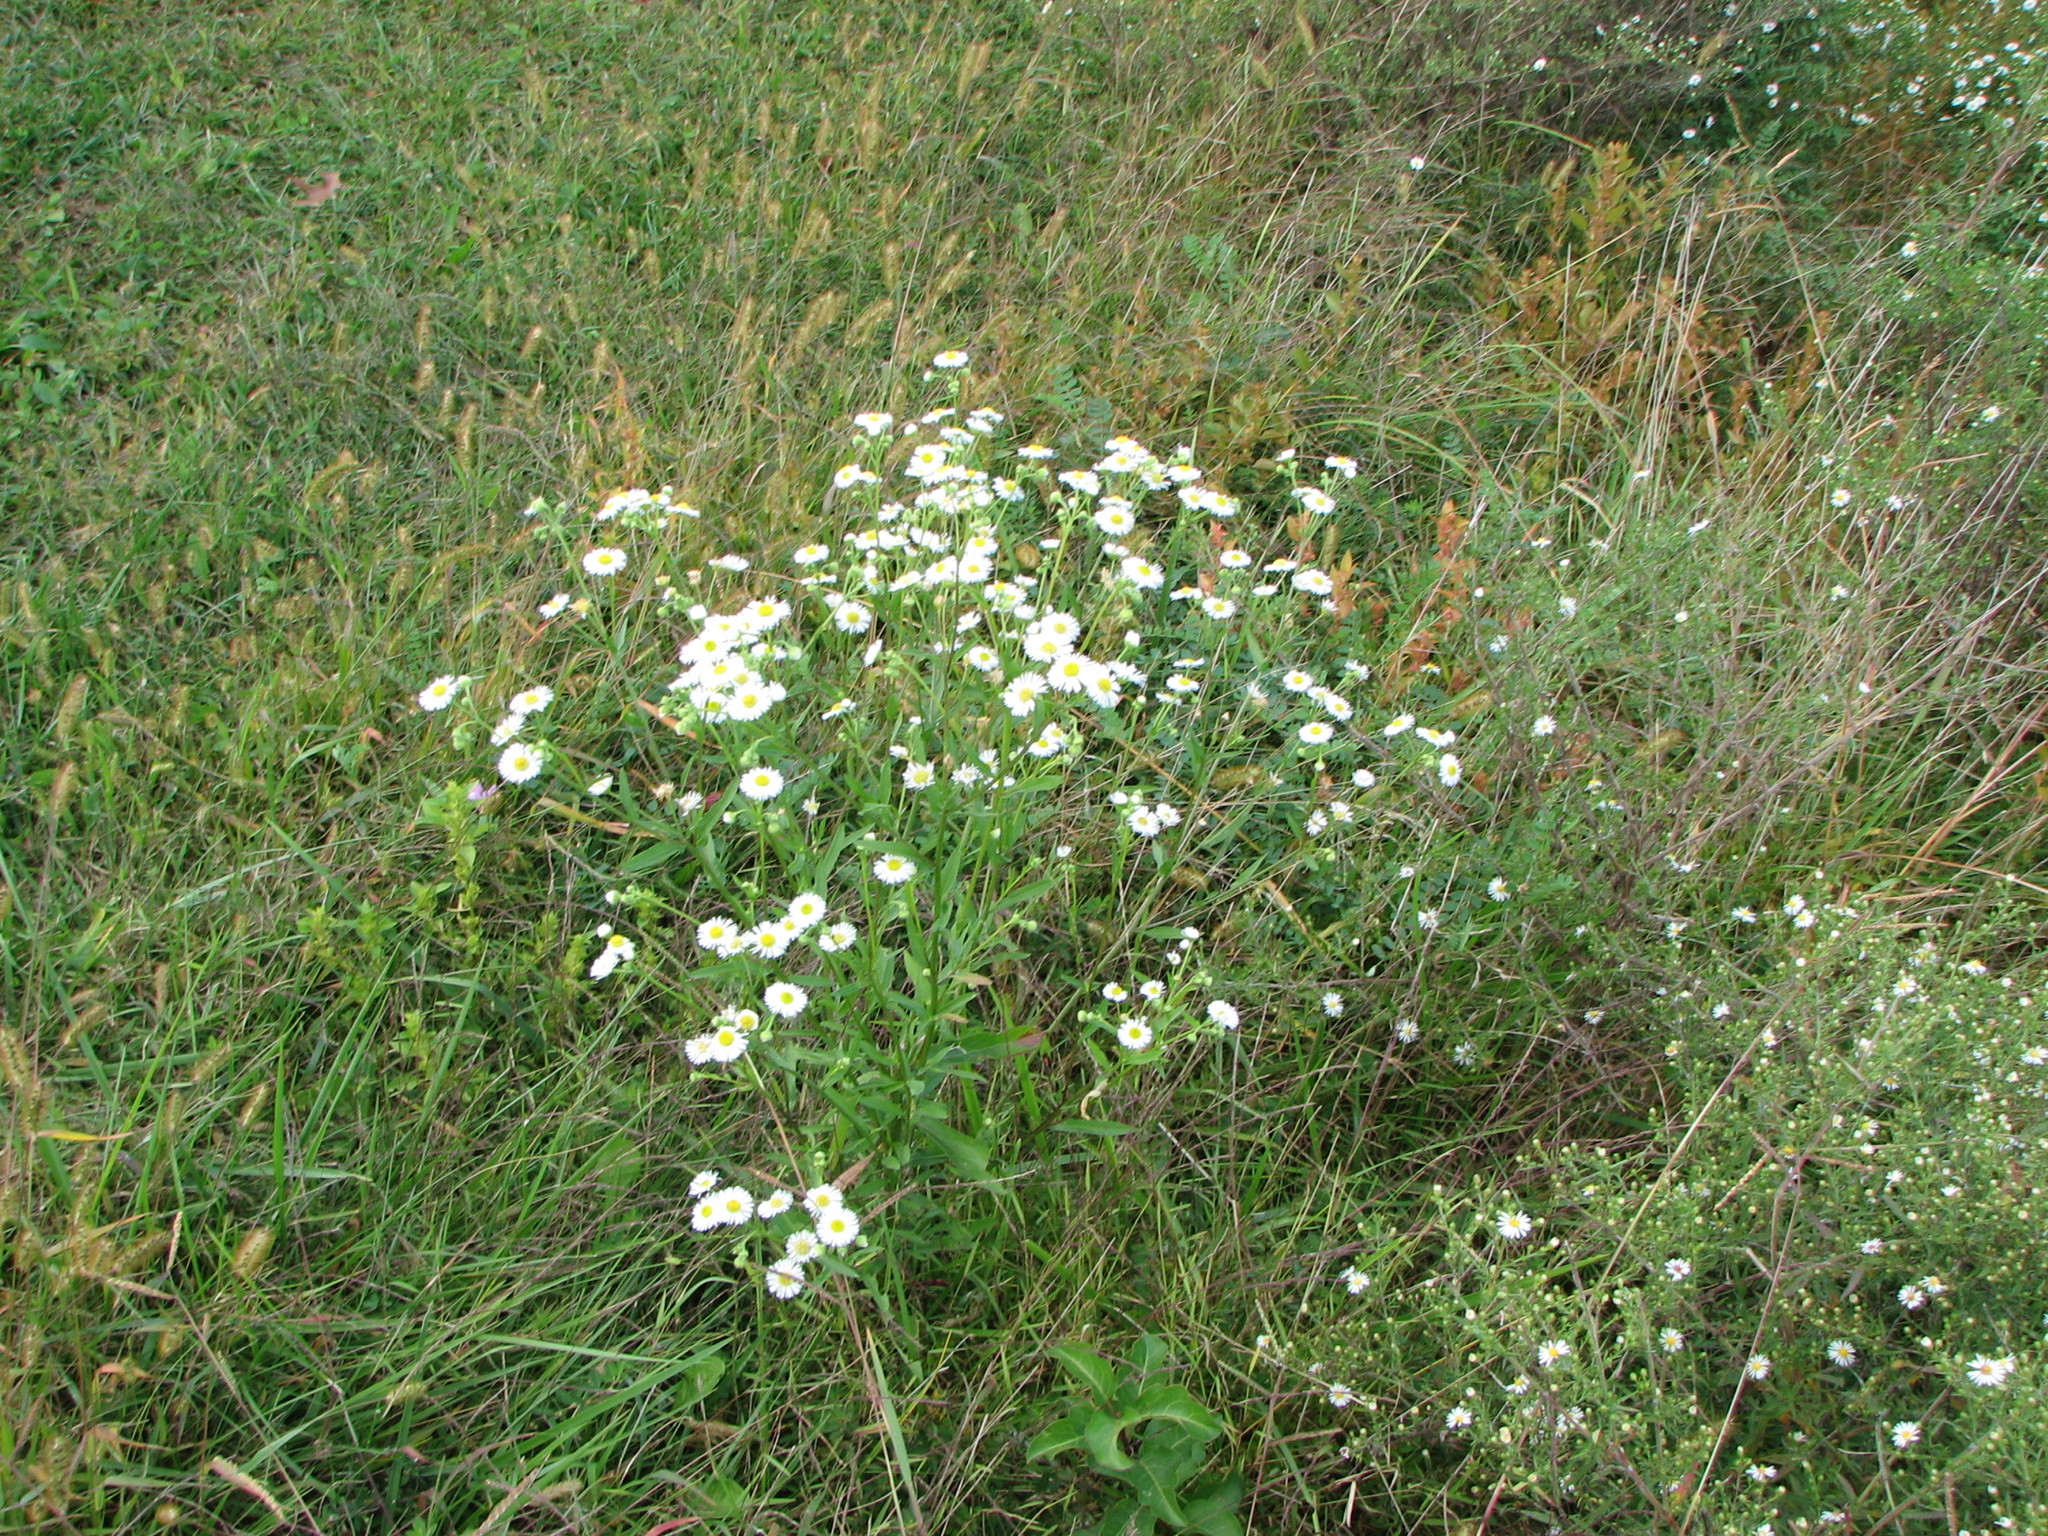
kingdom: Plantae
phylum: Tracheophyta
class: Magnoliopsida
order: Asterales
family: Asteraceae
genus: Erigeron
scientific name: Erigeron strigosus
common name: Common eastern fleabane
